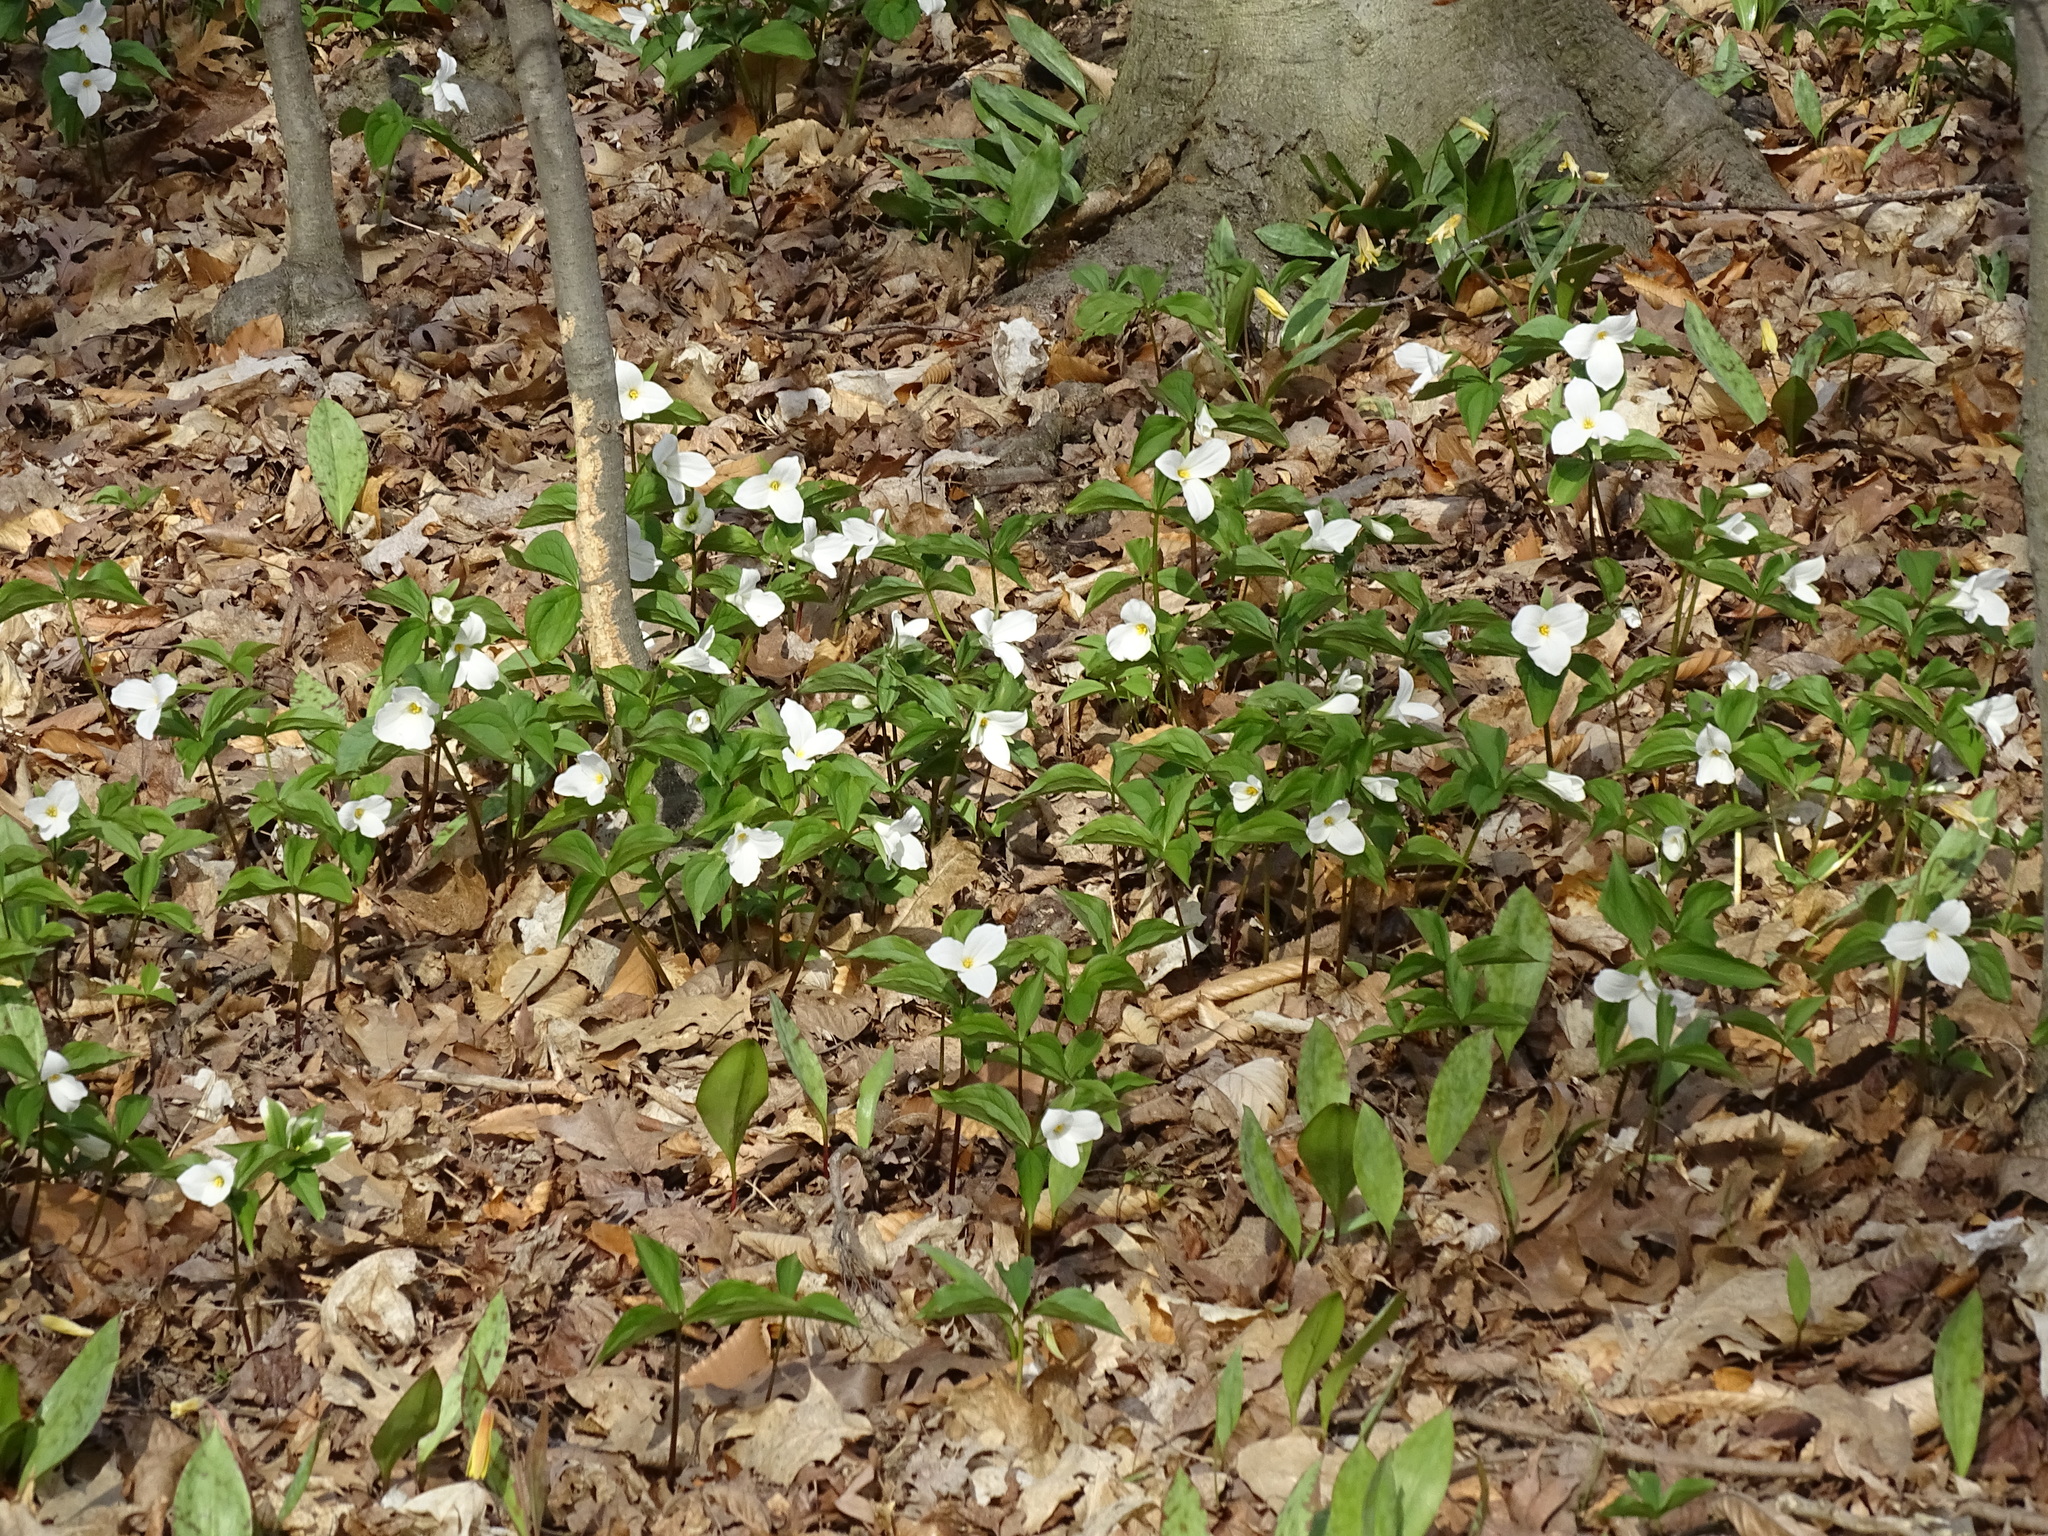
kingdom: Plantae
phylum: Tracheophyta
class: Liliopsida
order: Liliales
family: Melanthiaceae
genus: Trillium
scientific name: Trillium grandiflorum
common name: Great white trillium
